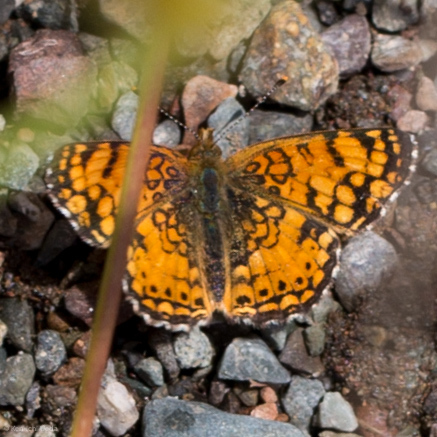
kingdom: Animalia
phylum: Arthropoda
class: Insecta
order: Lepidoptera
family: Nymphalidae
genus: Eresia
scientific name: Eresia aveyrona
